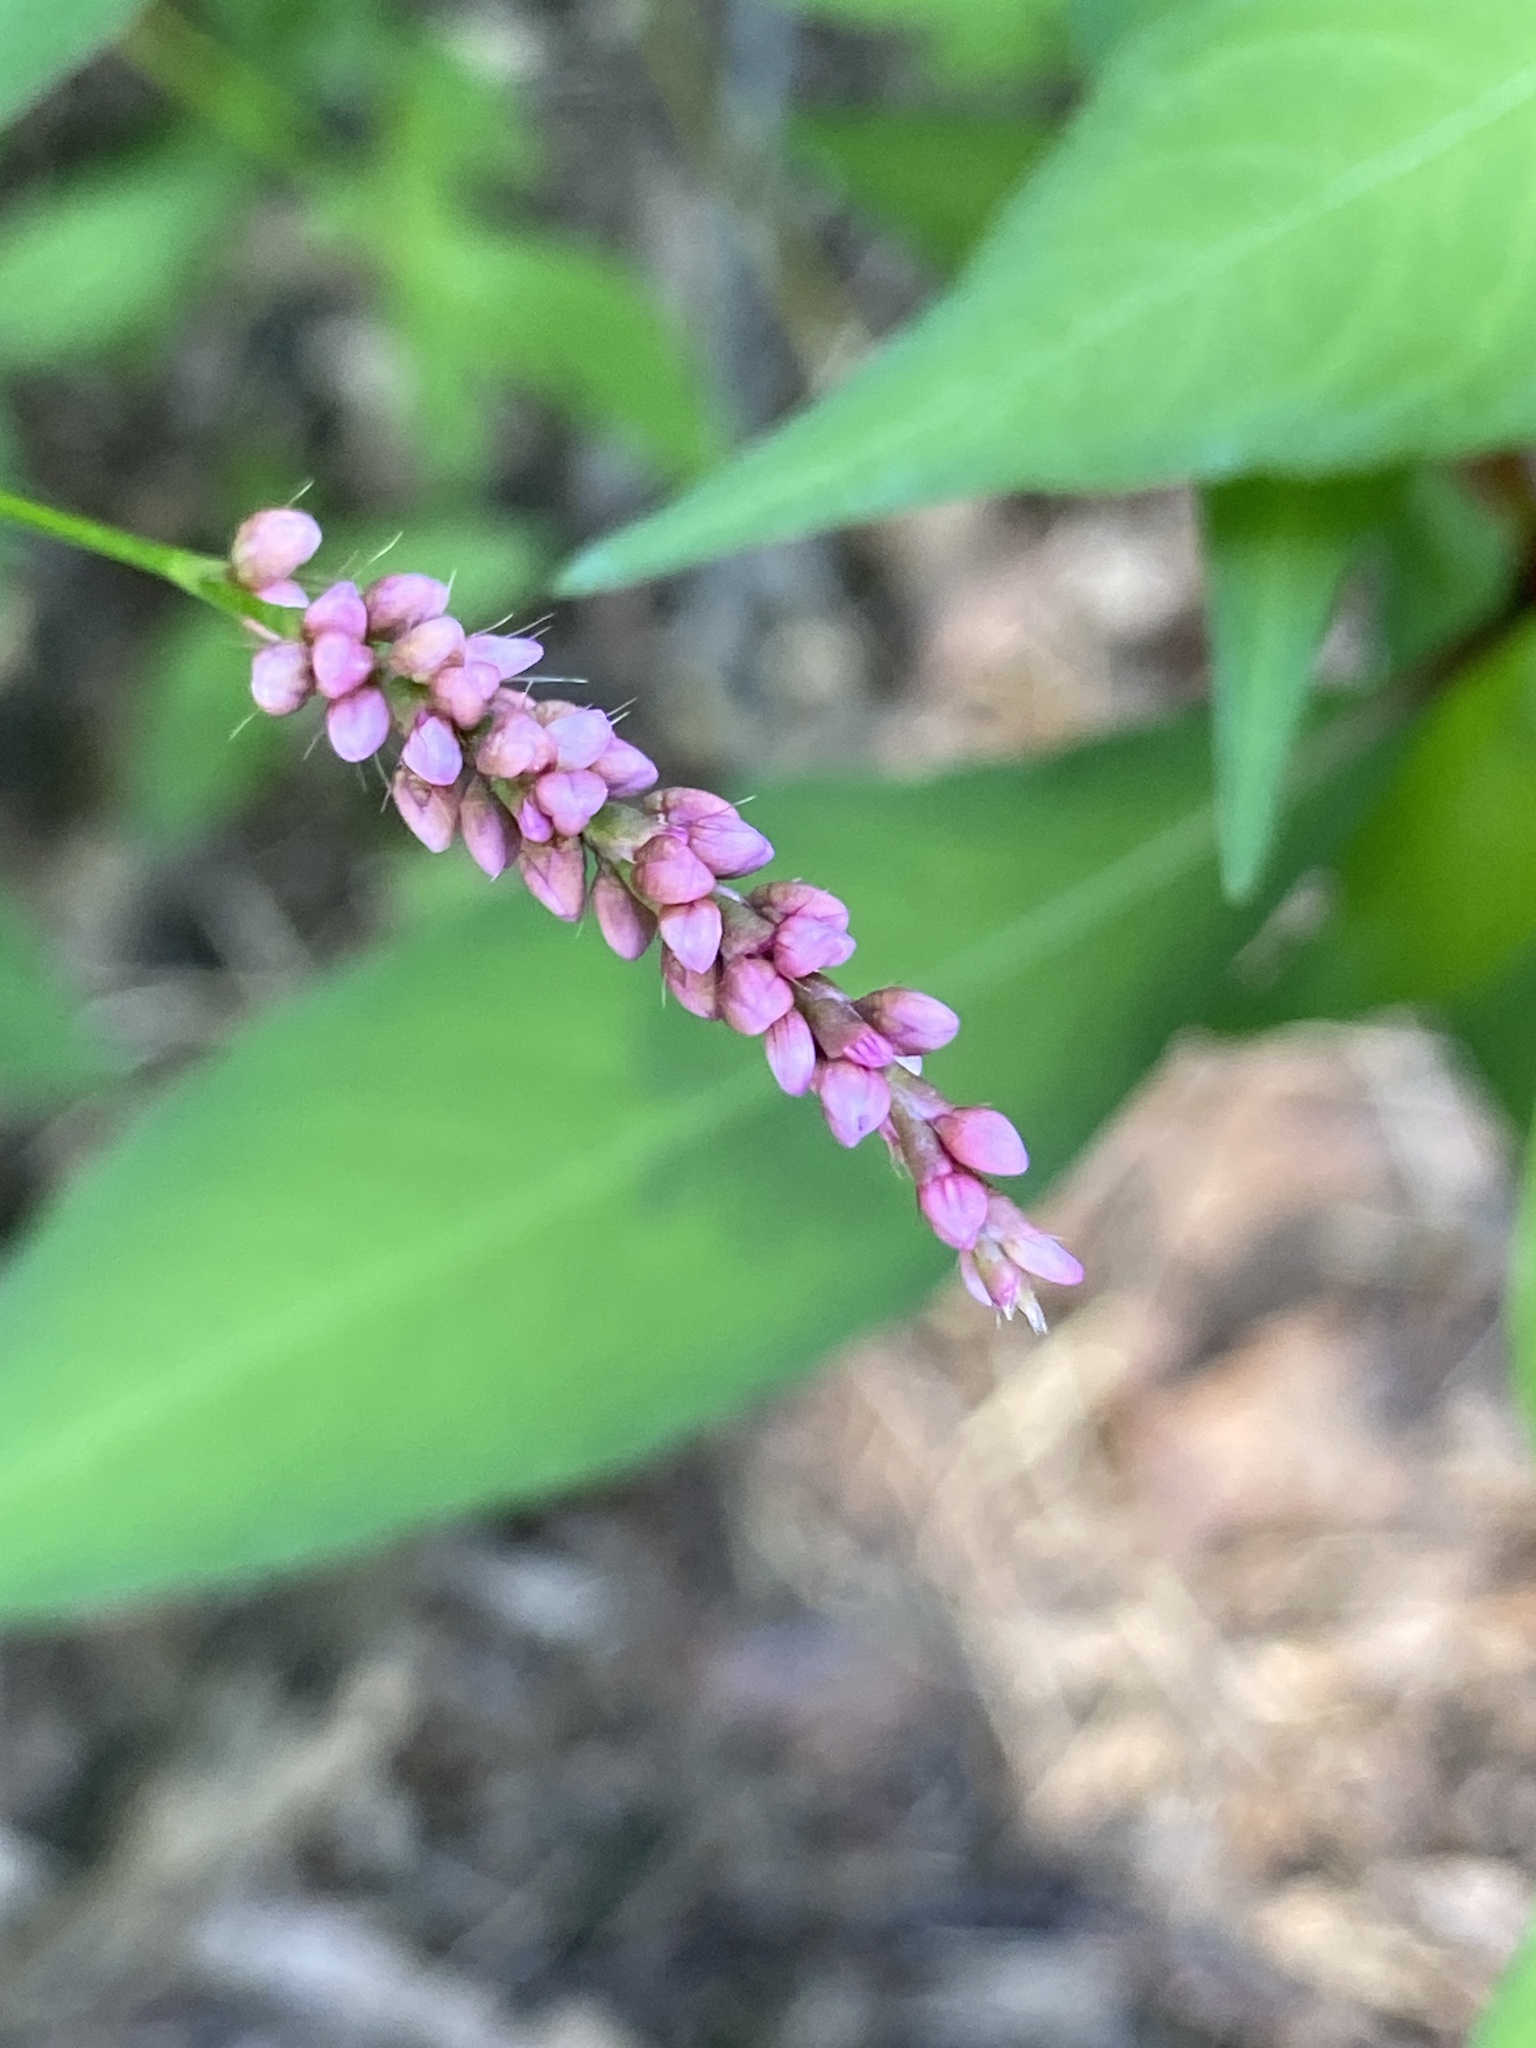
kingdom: Plantae
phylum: Tracheophyta
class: Magnoliopsida
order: Caryophyllales
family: Polygonaceae
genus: Persicaria
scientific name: Persicaria longiseta
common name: Bristly lady's-thumb
